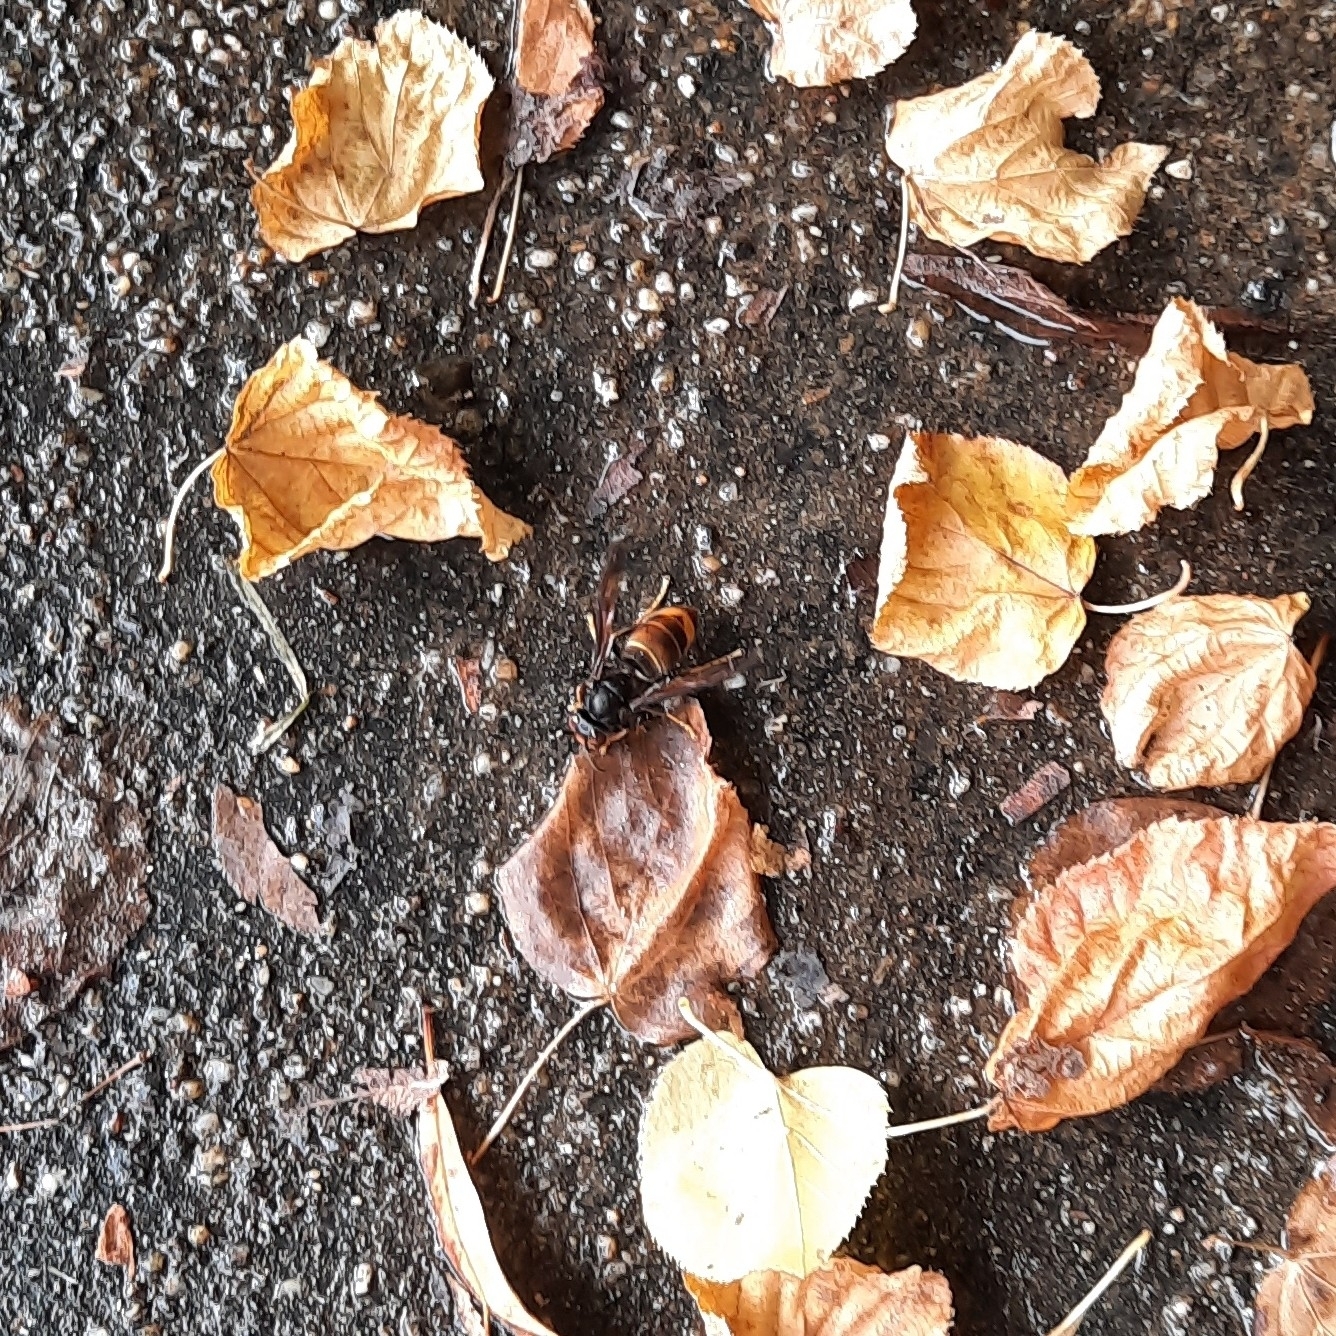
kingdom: Animalia
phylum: Arthropoda
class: Insecta
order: Hymenoptera
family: Vespidae
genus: Vespa
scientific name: Vespa velutina
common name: Asian hornet
